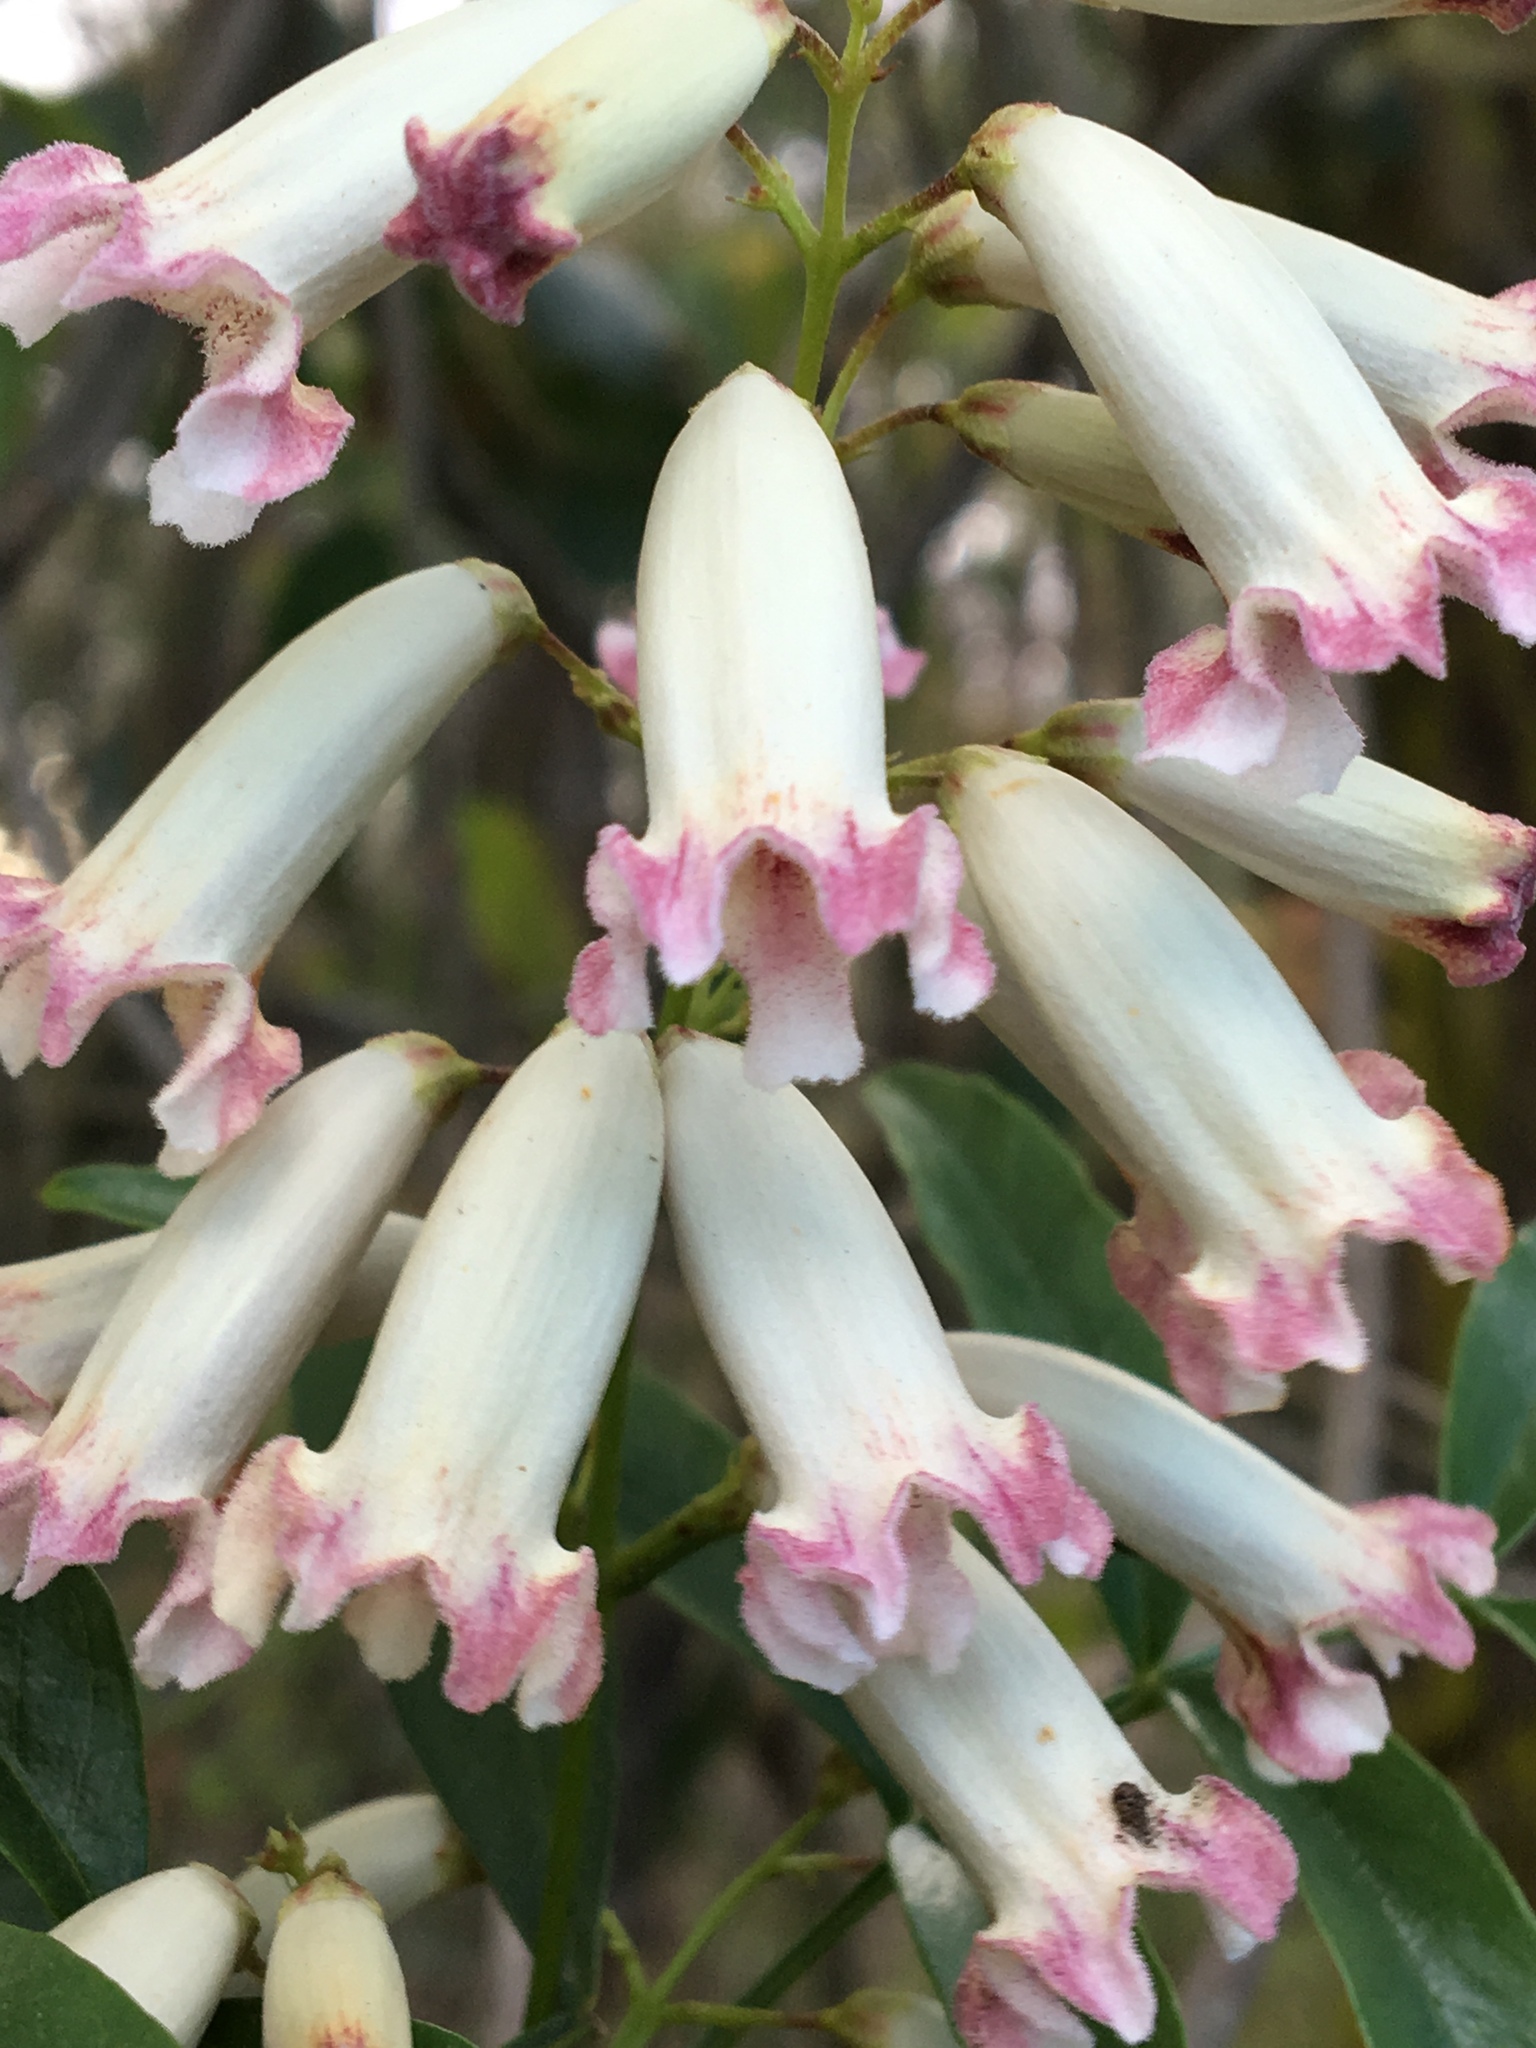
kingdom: Plantae
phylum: Tracheophyta
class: Magnoliopsida
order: Lamiales
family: Bignoniaceae
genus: Pandorea
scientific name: Pandorea pandorana
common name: Wonga-wonga-vine
